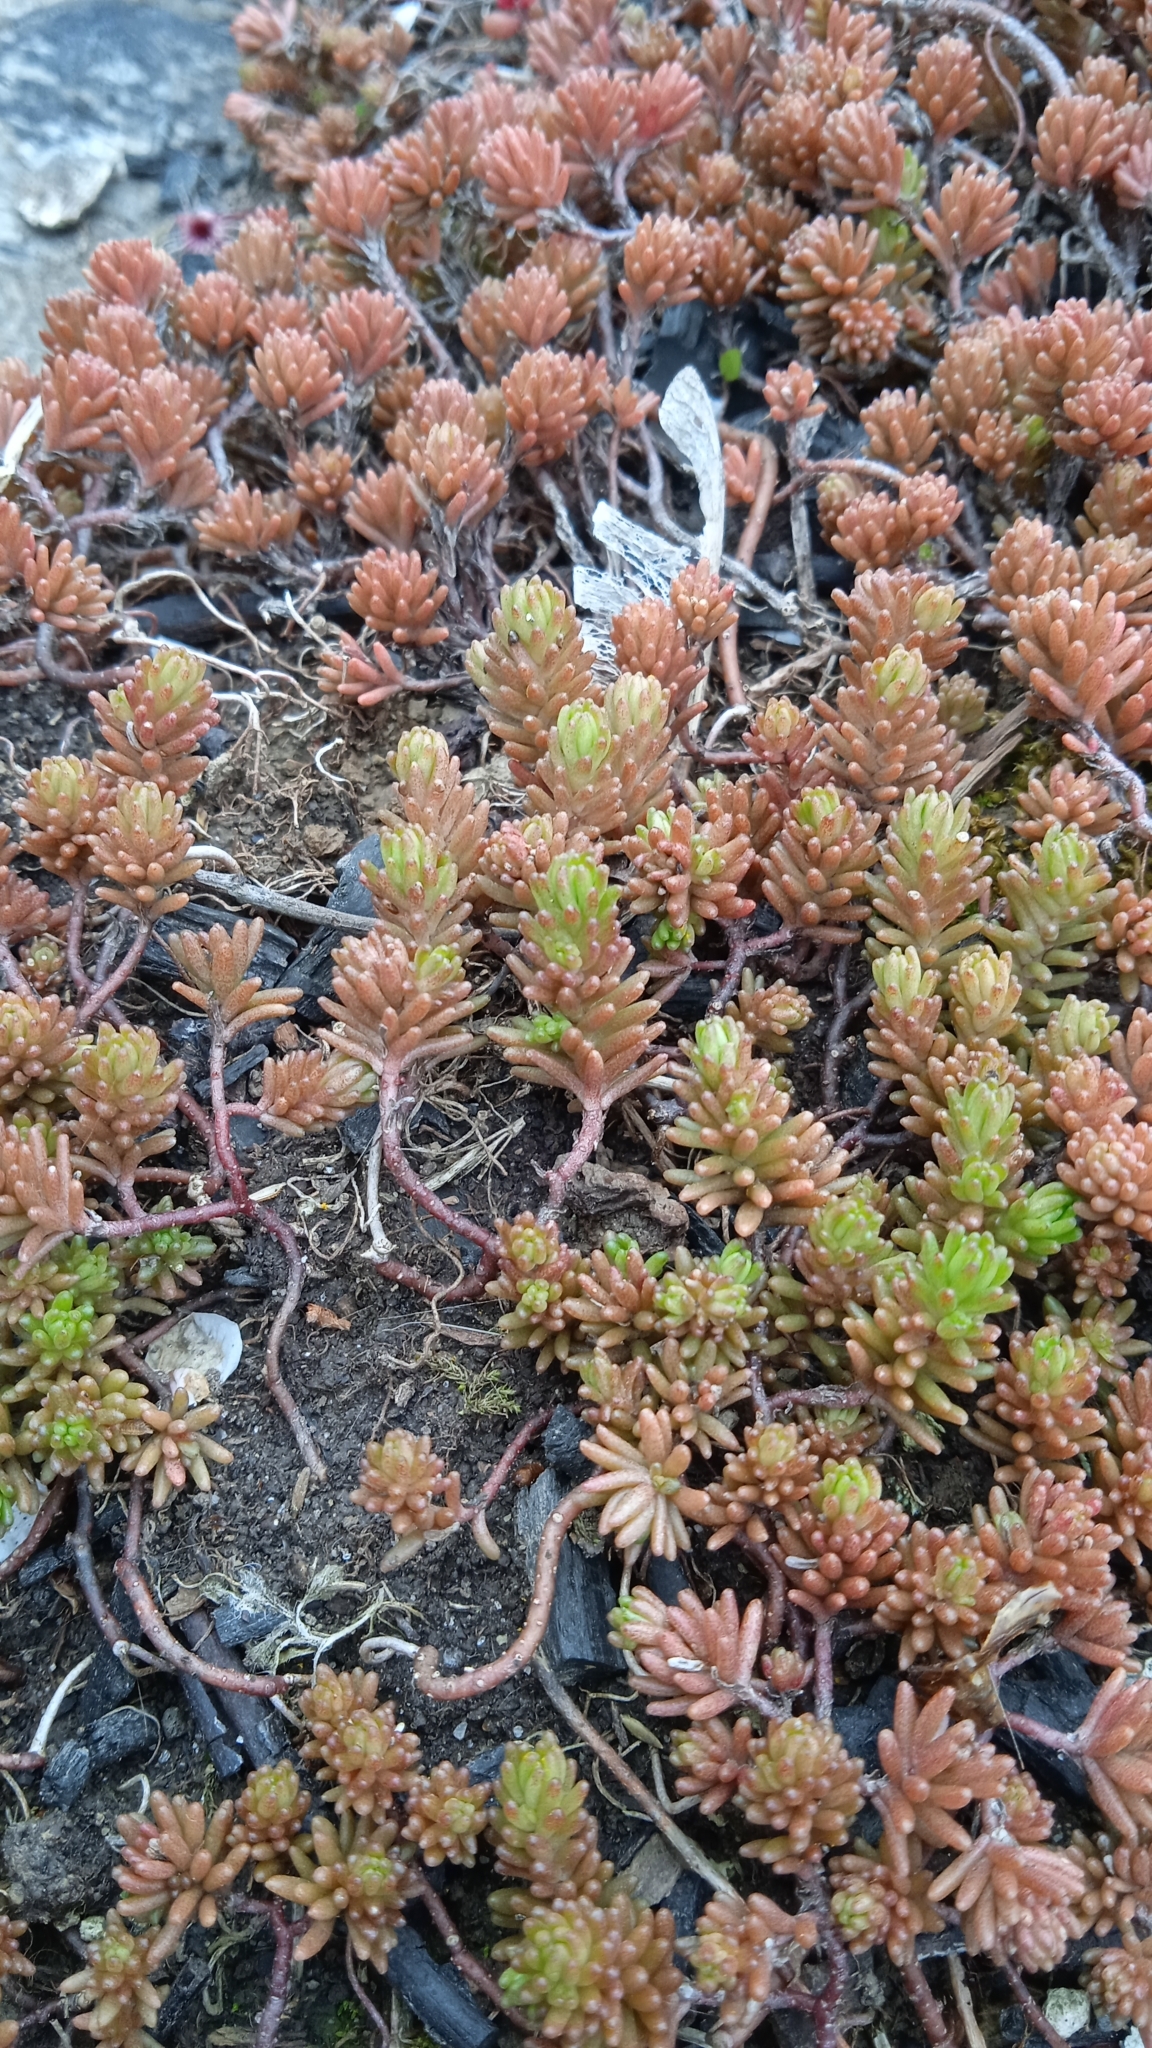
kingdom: Plantae
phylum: Tracheophyta
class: Magnoliopsida
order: Saxifragales
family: Crassulaceae
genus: Sedum
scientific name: Sedum sexangulare
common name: Tasteless stonecrop
